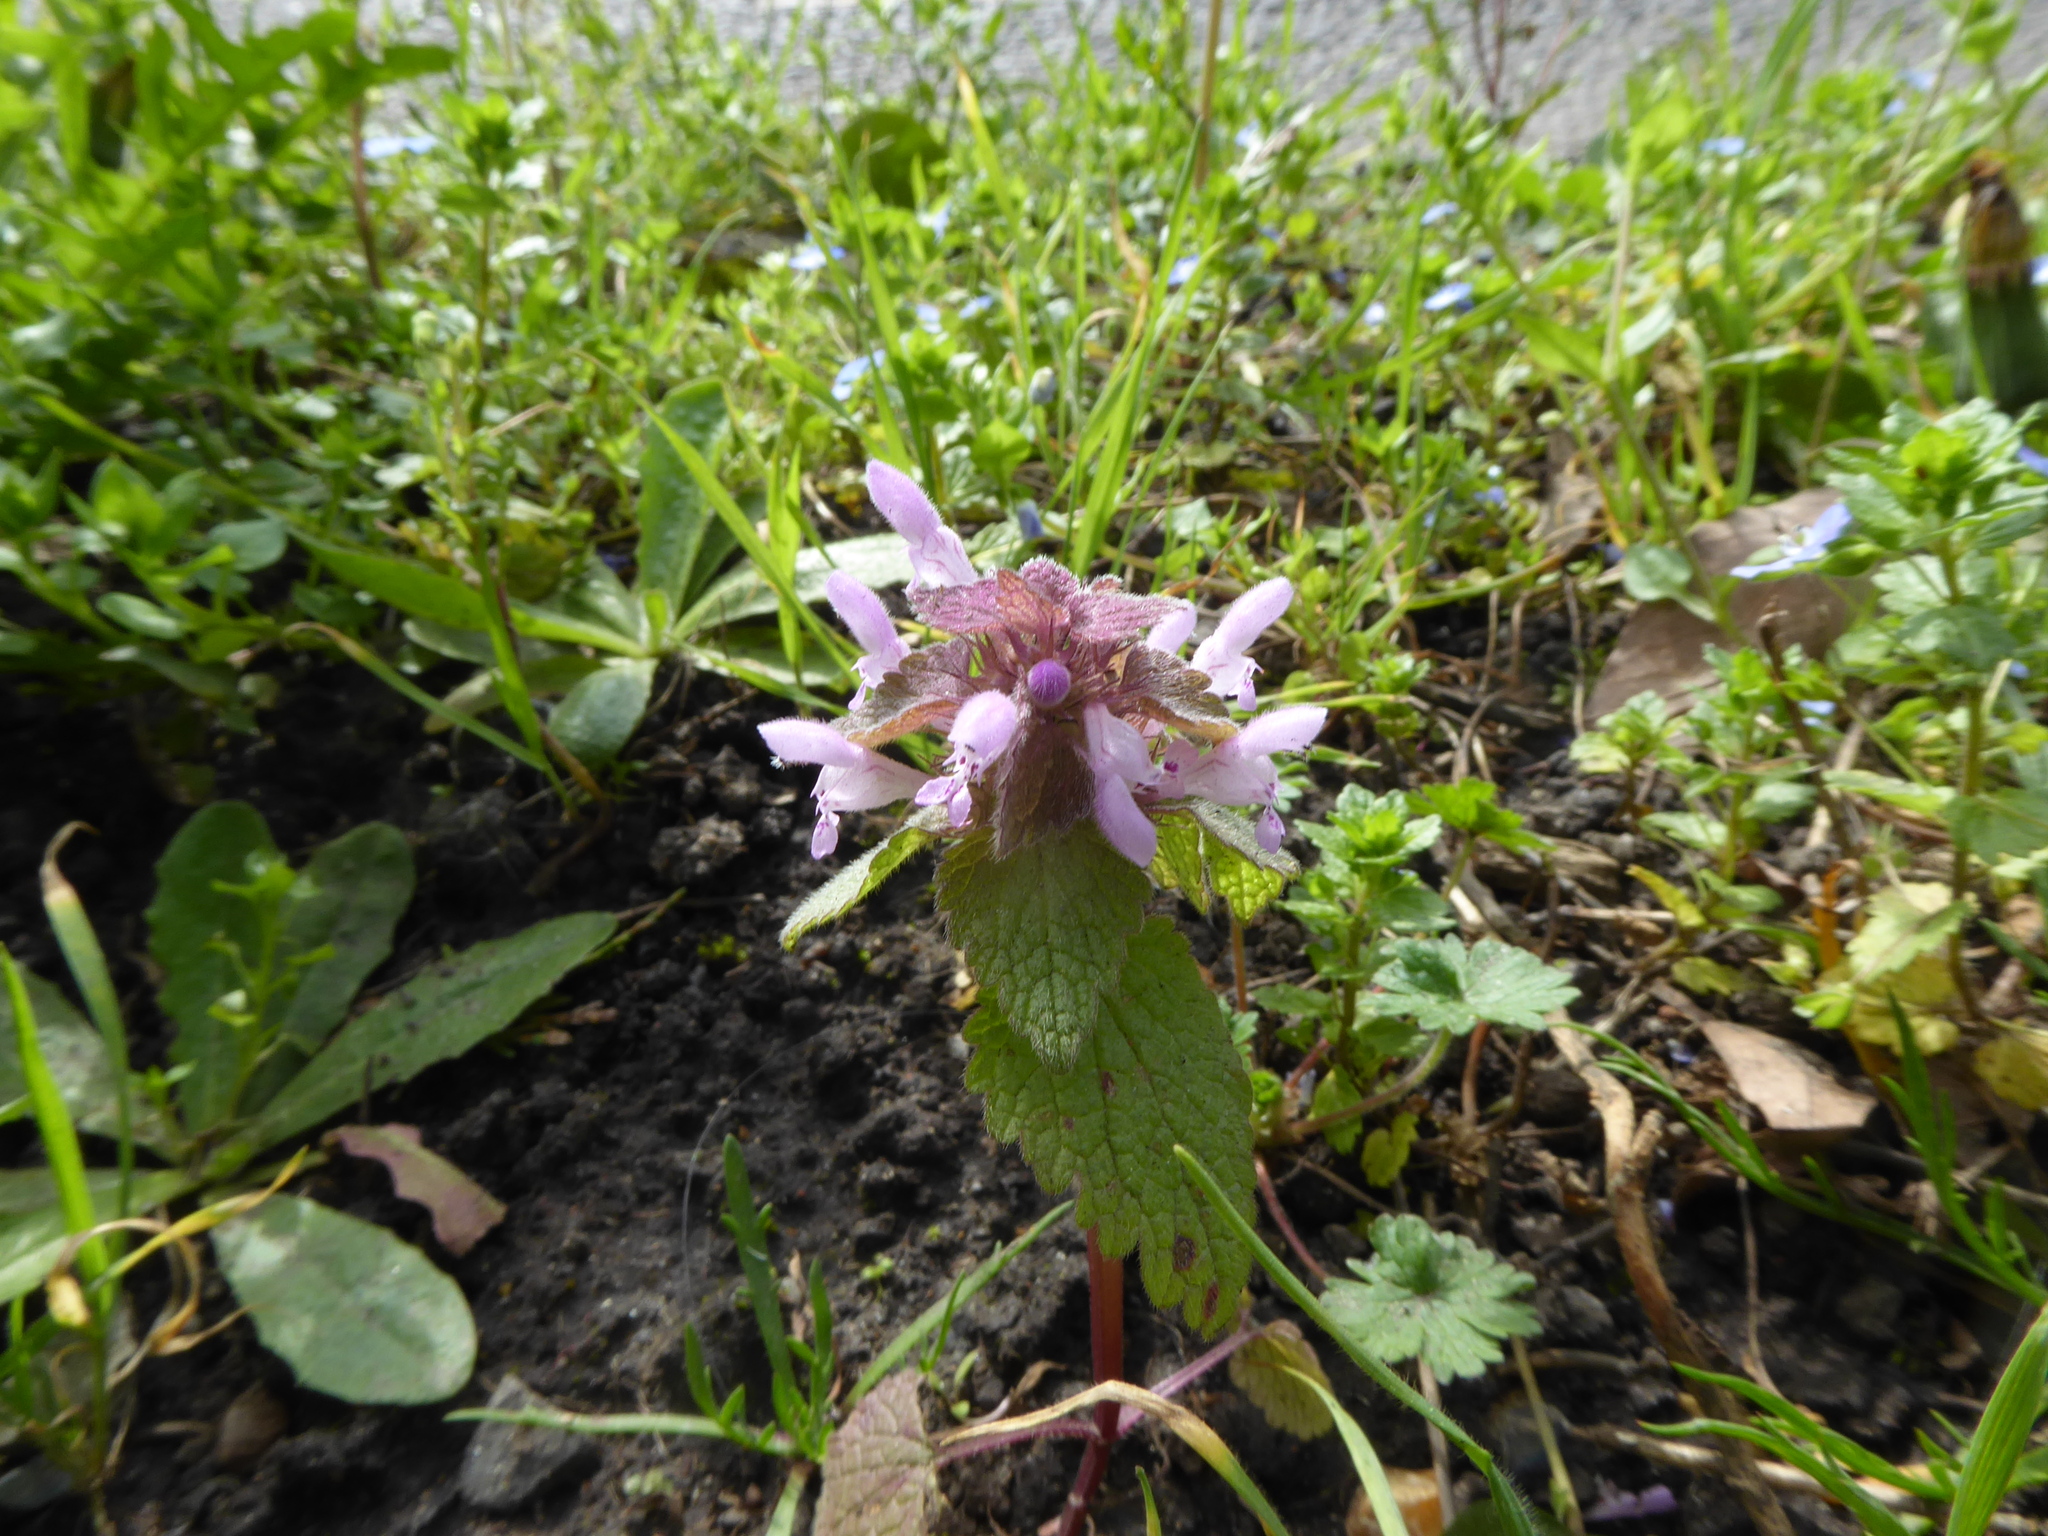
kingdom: Plantae
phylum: Tracheophyta
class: Magnoliopsida
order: Lamiales
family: Lamiaceae
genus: Lamium
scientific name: Lamium purpureum
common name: Red dead-nettle
